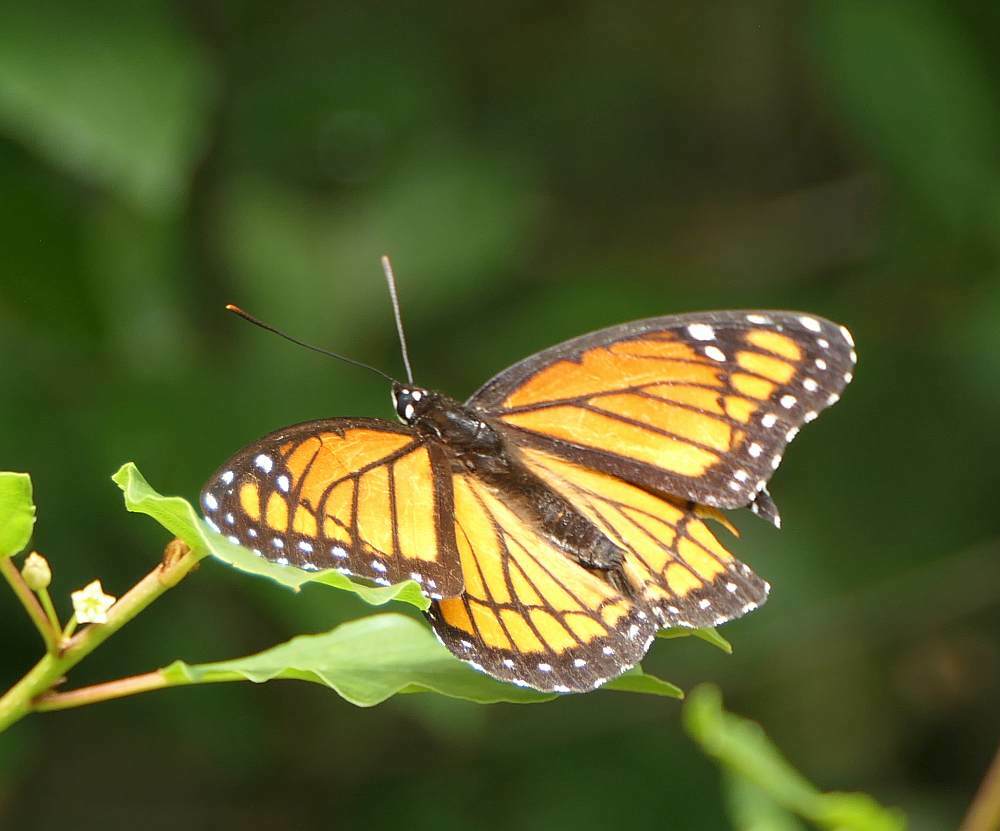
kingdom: Animalia
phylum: Arthropoda
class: Insecta
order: Lepidoptera
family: Nymphalidae
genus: Limenitis
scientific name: Limenitis archippus
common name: Viceroy
